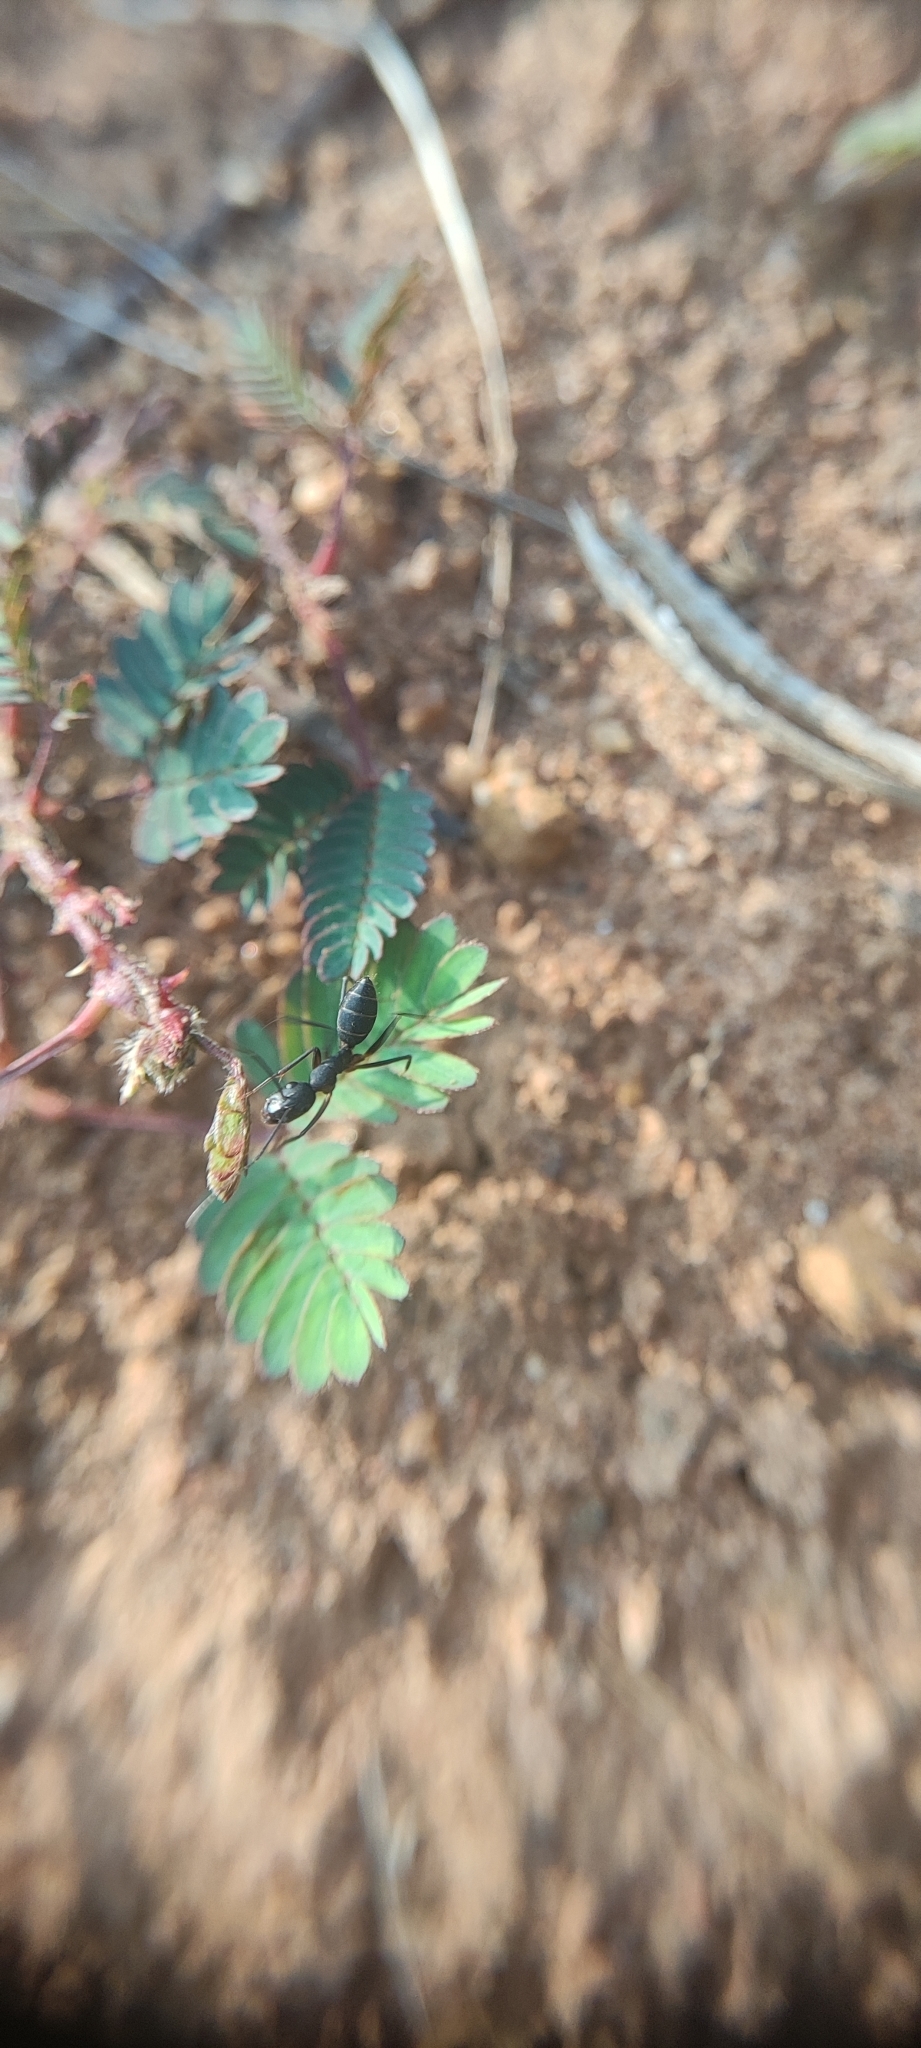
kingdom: Animalia
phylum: Arthropoda
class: Insecta
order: Hymenoptera
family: Formicidae
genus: Camponotus
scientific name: Camponotus compressus
